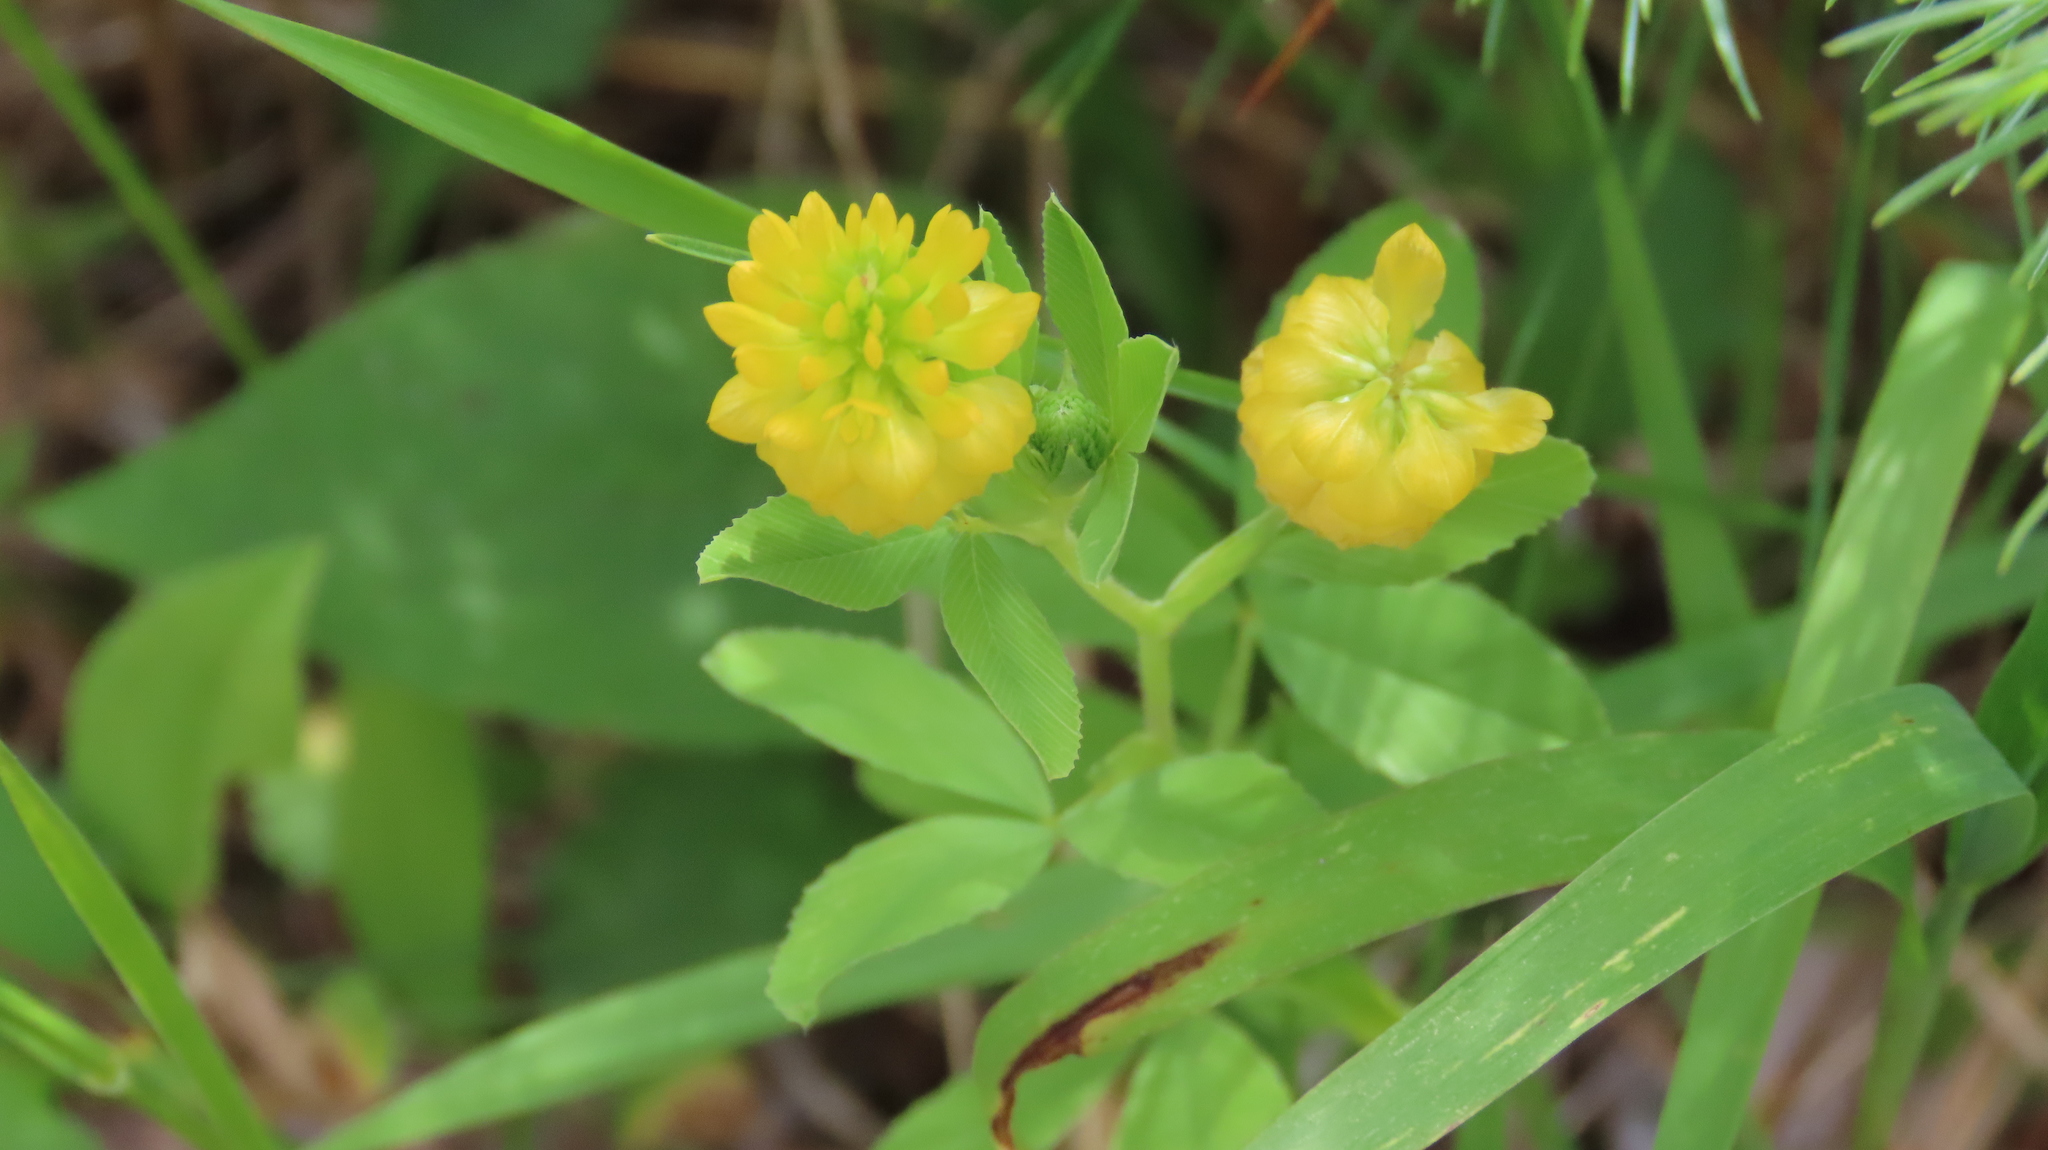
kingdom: Plantae
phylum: Tracheophyta
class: Magnoliopsida
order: Fabales
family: Fabaceae
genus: Trifolium
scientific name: Trifolium aureum
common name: Golden clover
